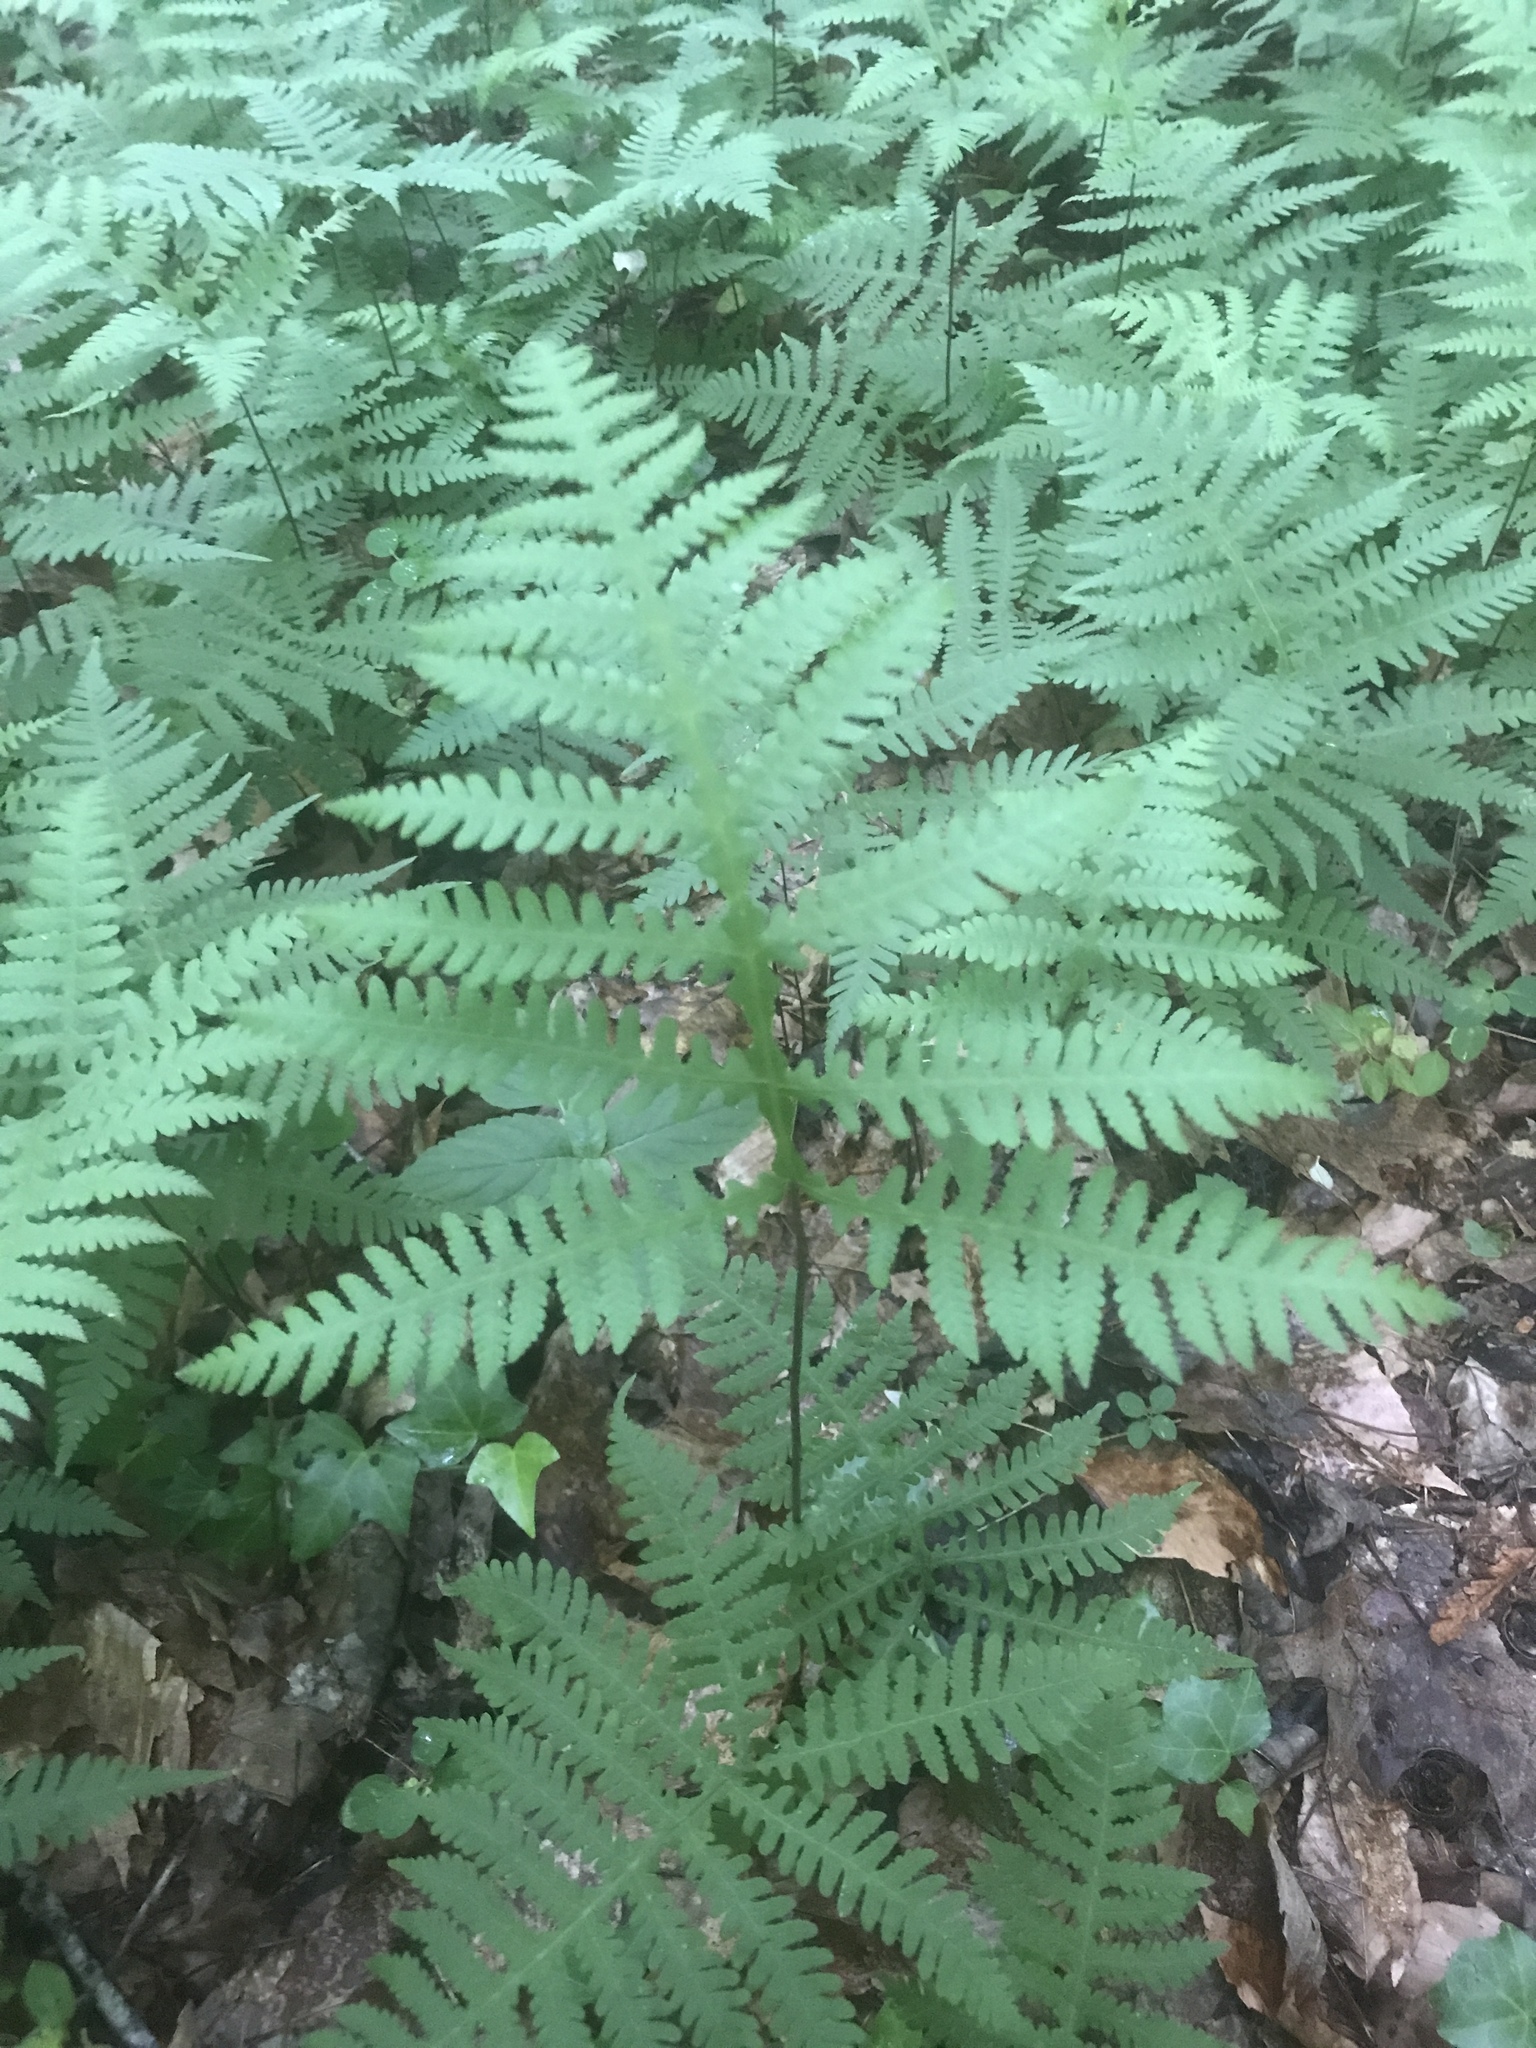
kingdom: Plantae
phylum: Tracheophyta
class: Polypodiopsida
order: Polypodiales
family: Thelypteridaceae
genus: Phegopteris
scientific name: Phegopteris hexagonoptera
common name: Broad beech fern
